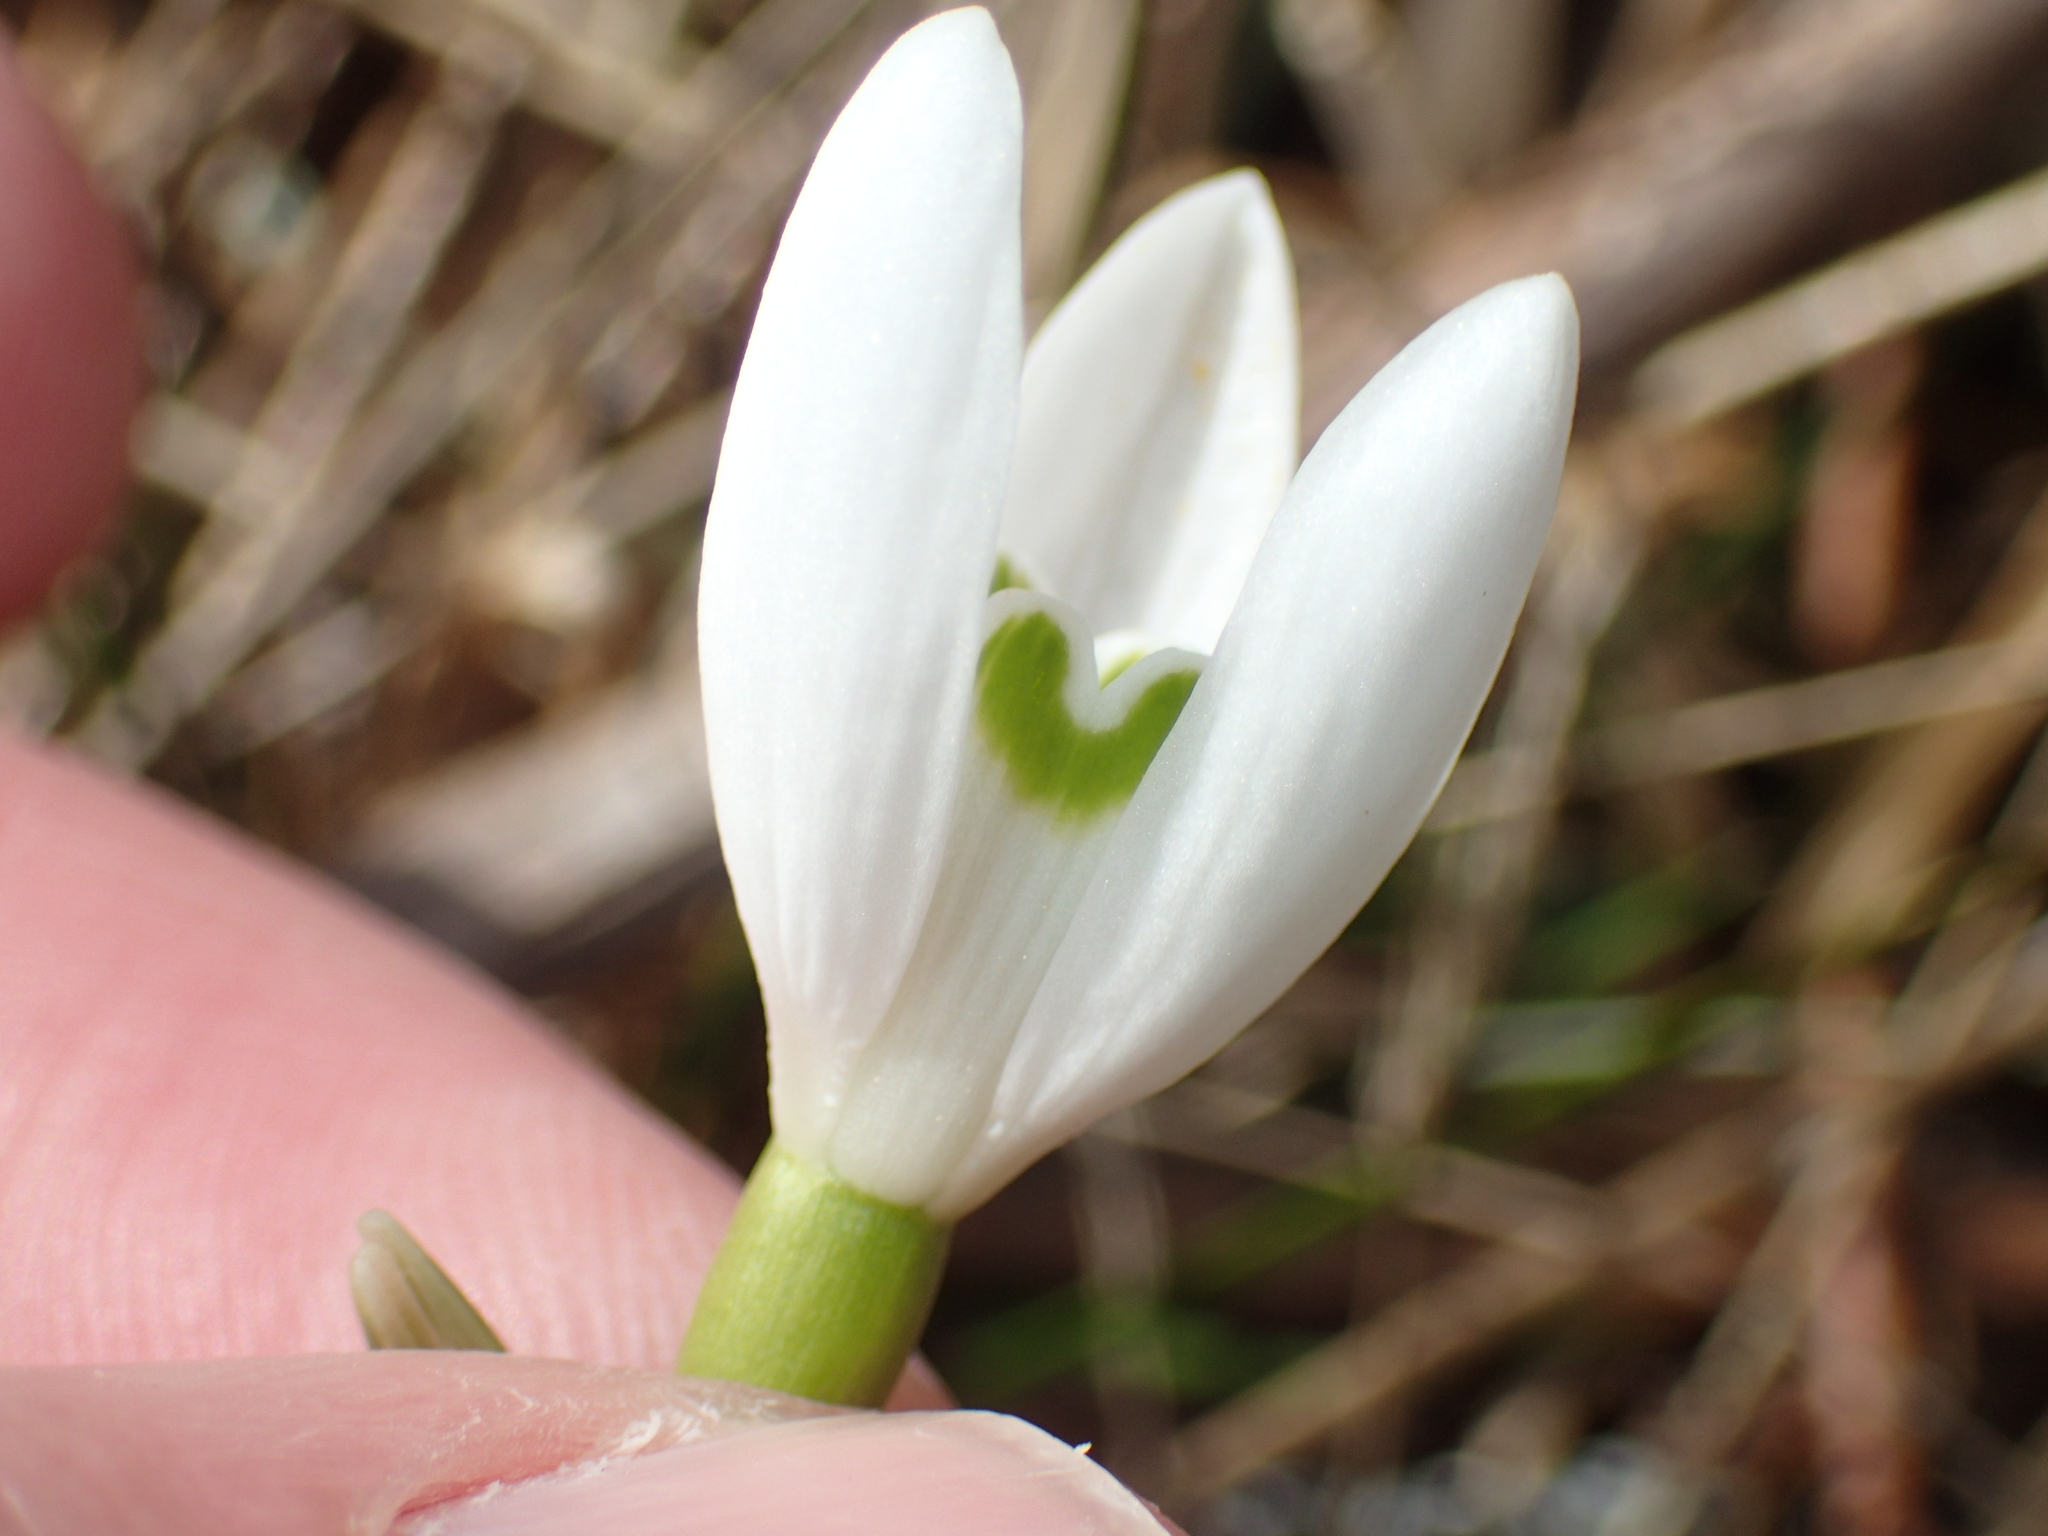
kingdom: Plantae
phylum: Tracheophyta
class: Liliopsida
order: Asparagales
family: Amaryllidaceae
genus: Galanthus
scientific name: Galanthus nivalis
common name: Snowdrop
